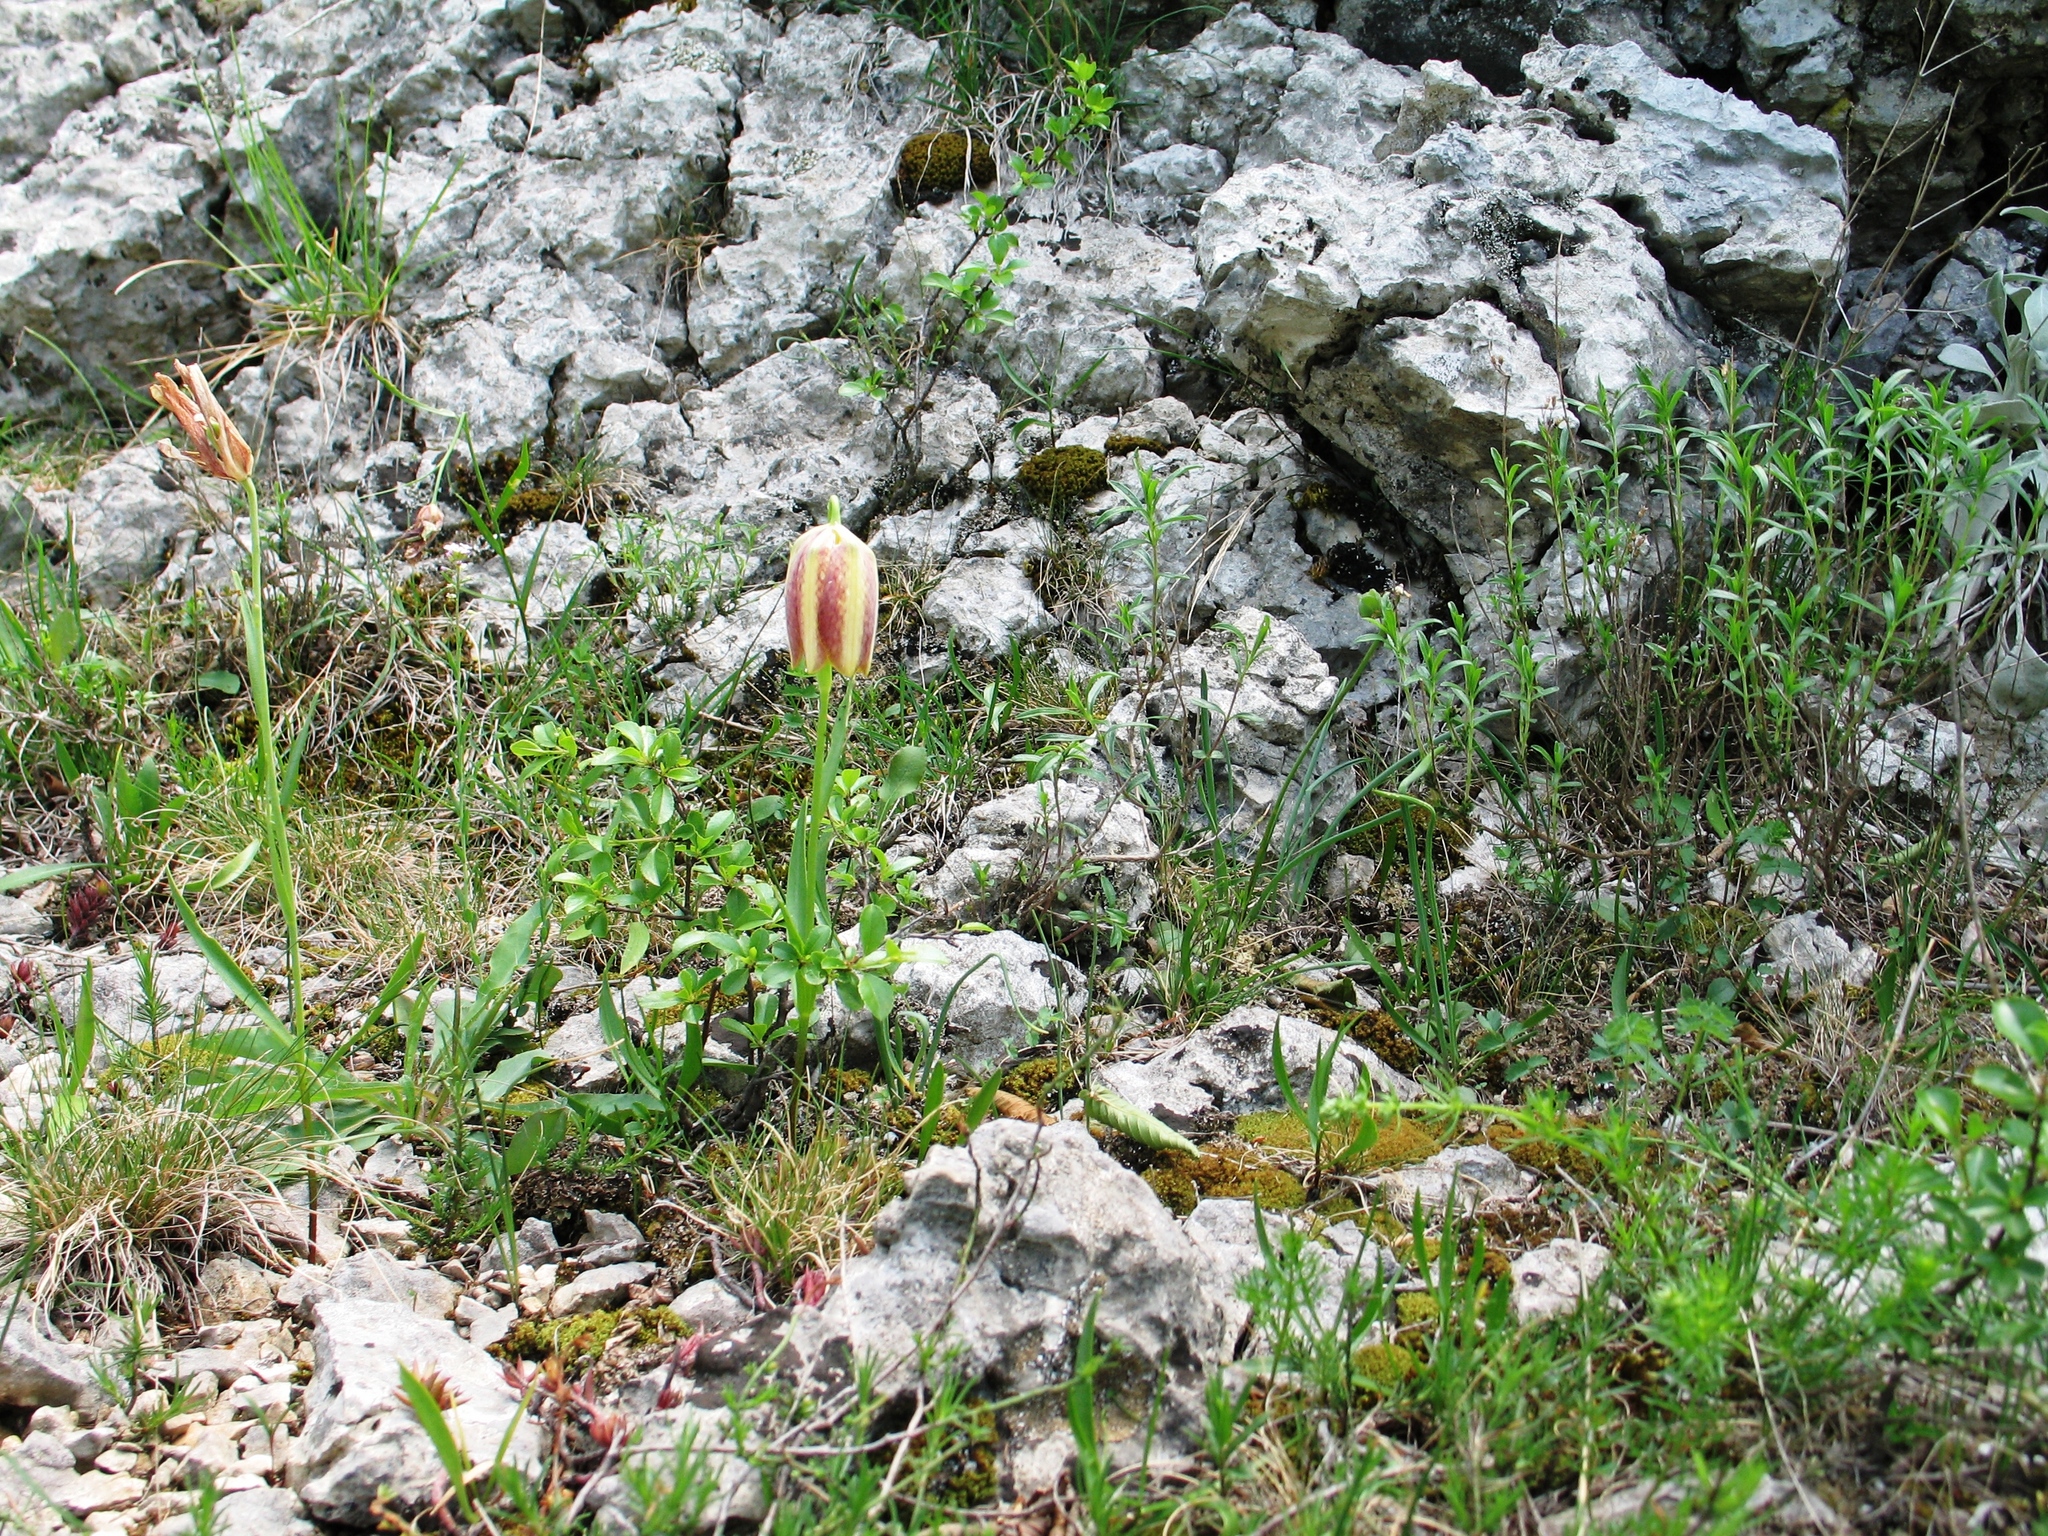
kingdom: Plantae
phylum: Tracheophyta
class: Liliopsida
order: Liliales
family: Liliaceae
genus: Fritillaria
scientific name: Fritillaria messanensis
